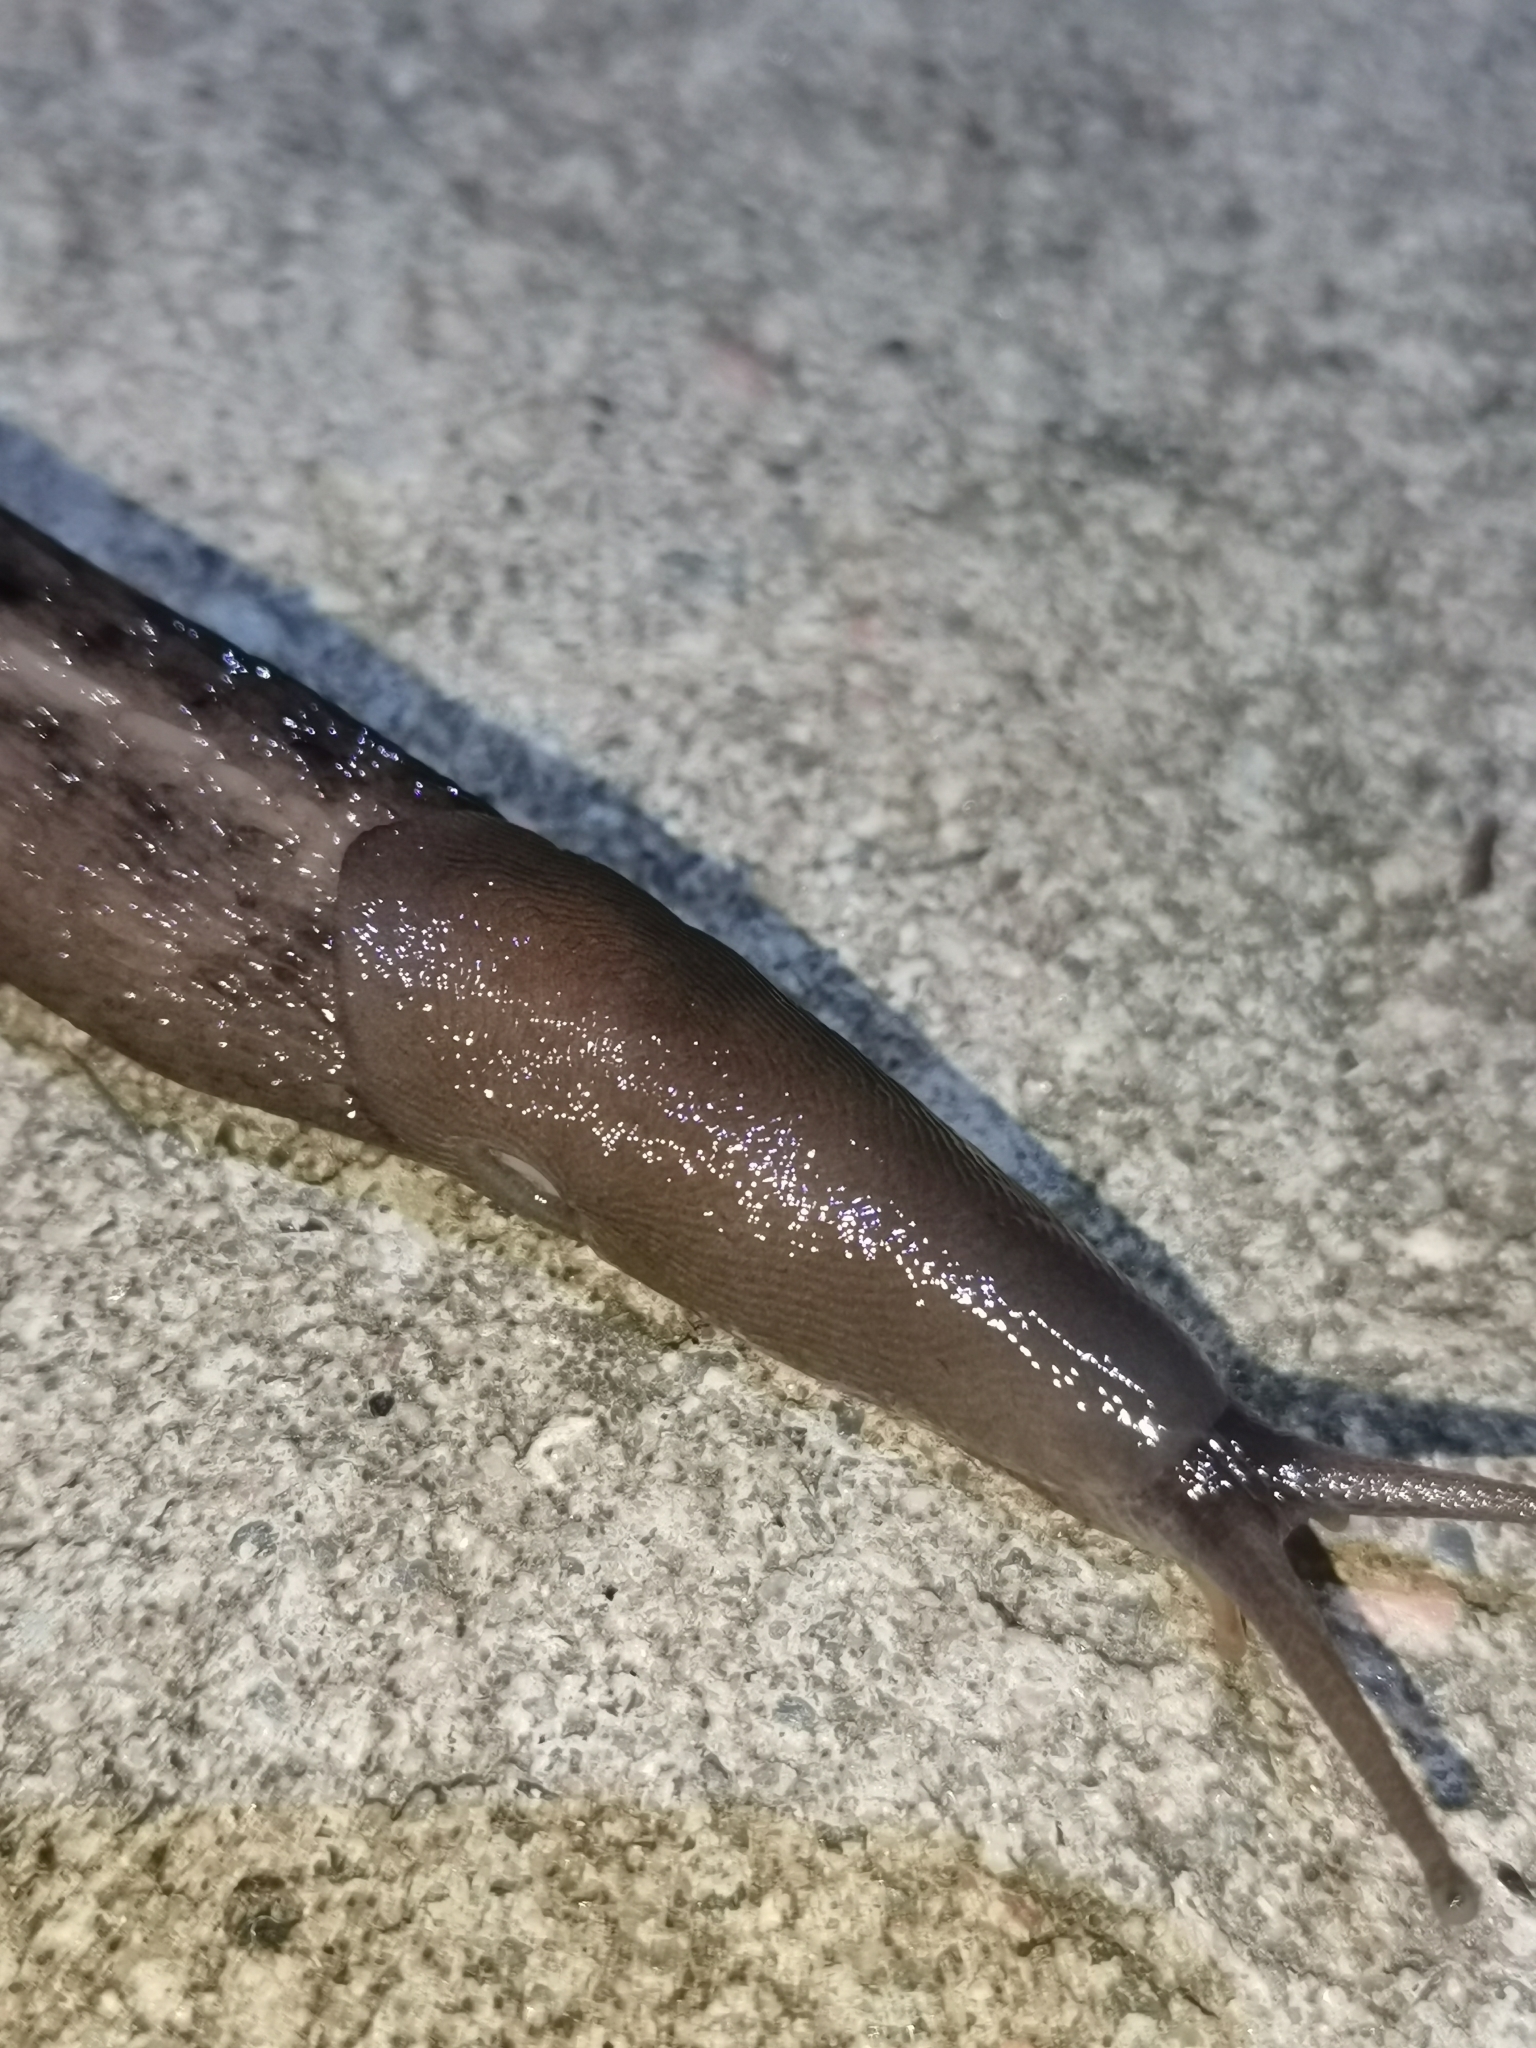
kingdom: Animalia
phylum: Mollusca
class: Gastropoda
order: Stylommatophora
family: Limacidae
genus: Limax
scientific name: Limax cinereoniger
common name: Ash-black slug
